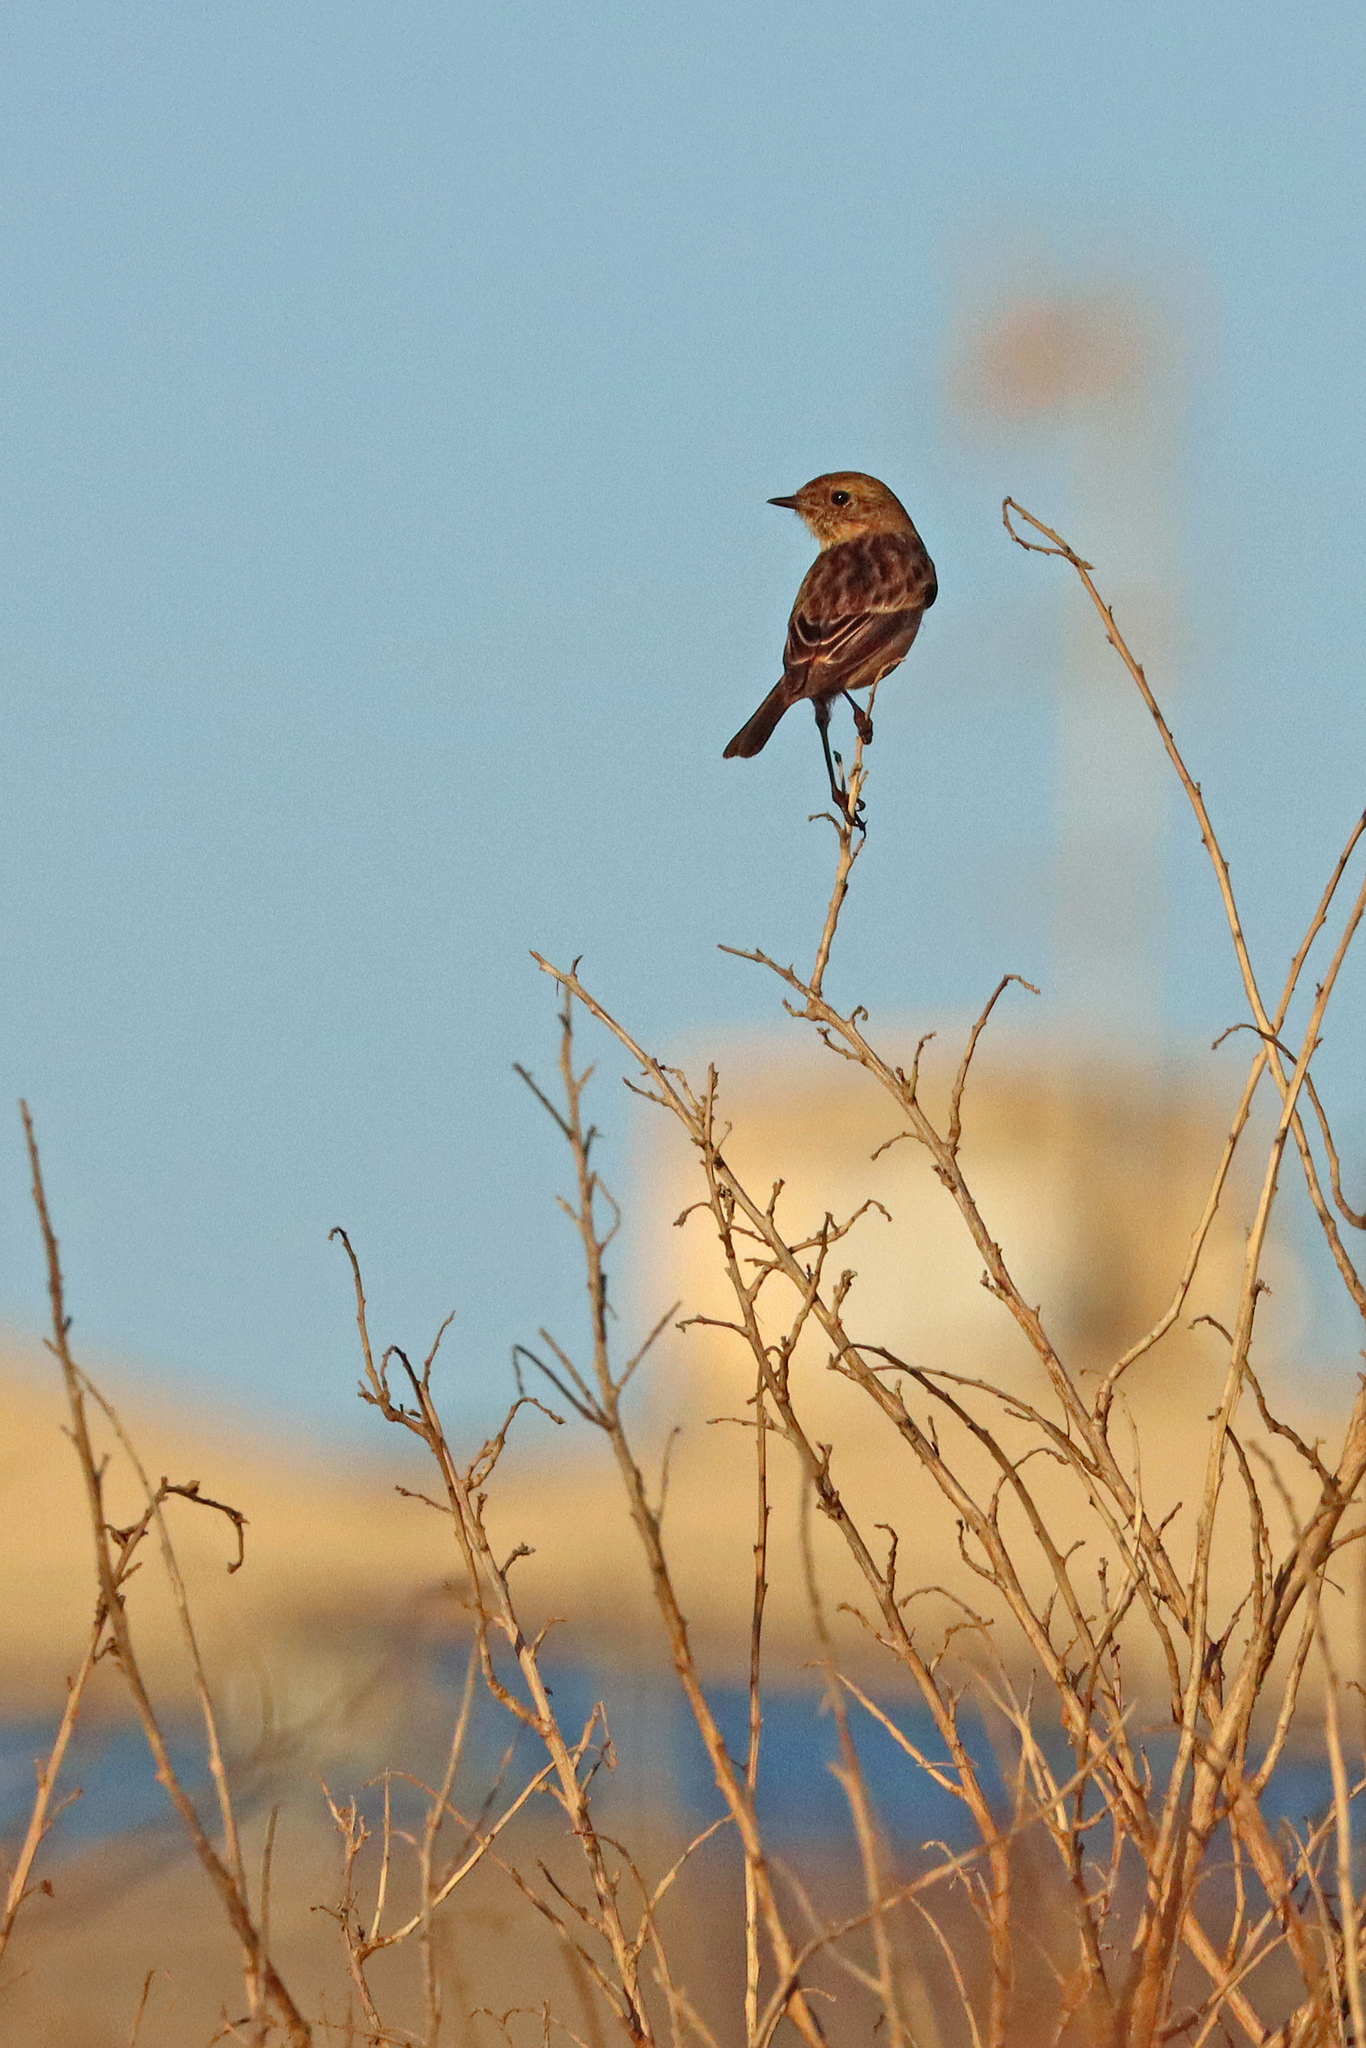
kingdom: Animalia
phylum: Chordata
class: Aves
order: Passeriformes
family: Muscicapidae
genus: Saxicola
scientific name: Saxicola rubicola
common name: European stonechat
